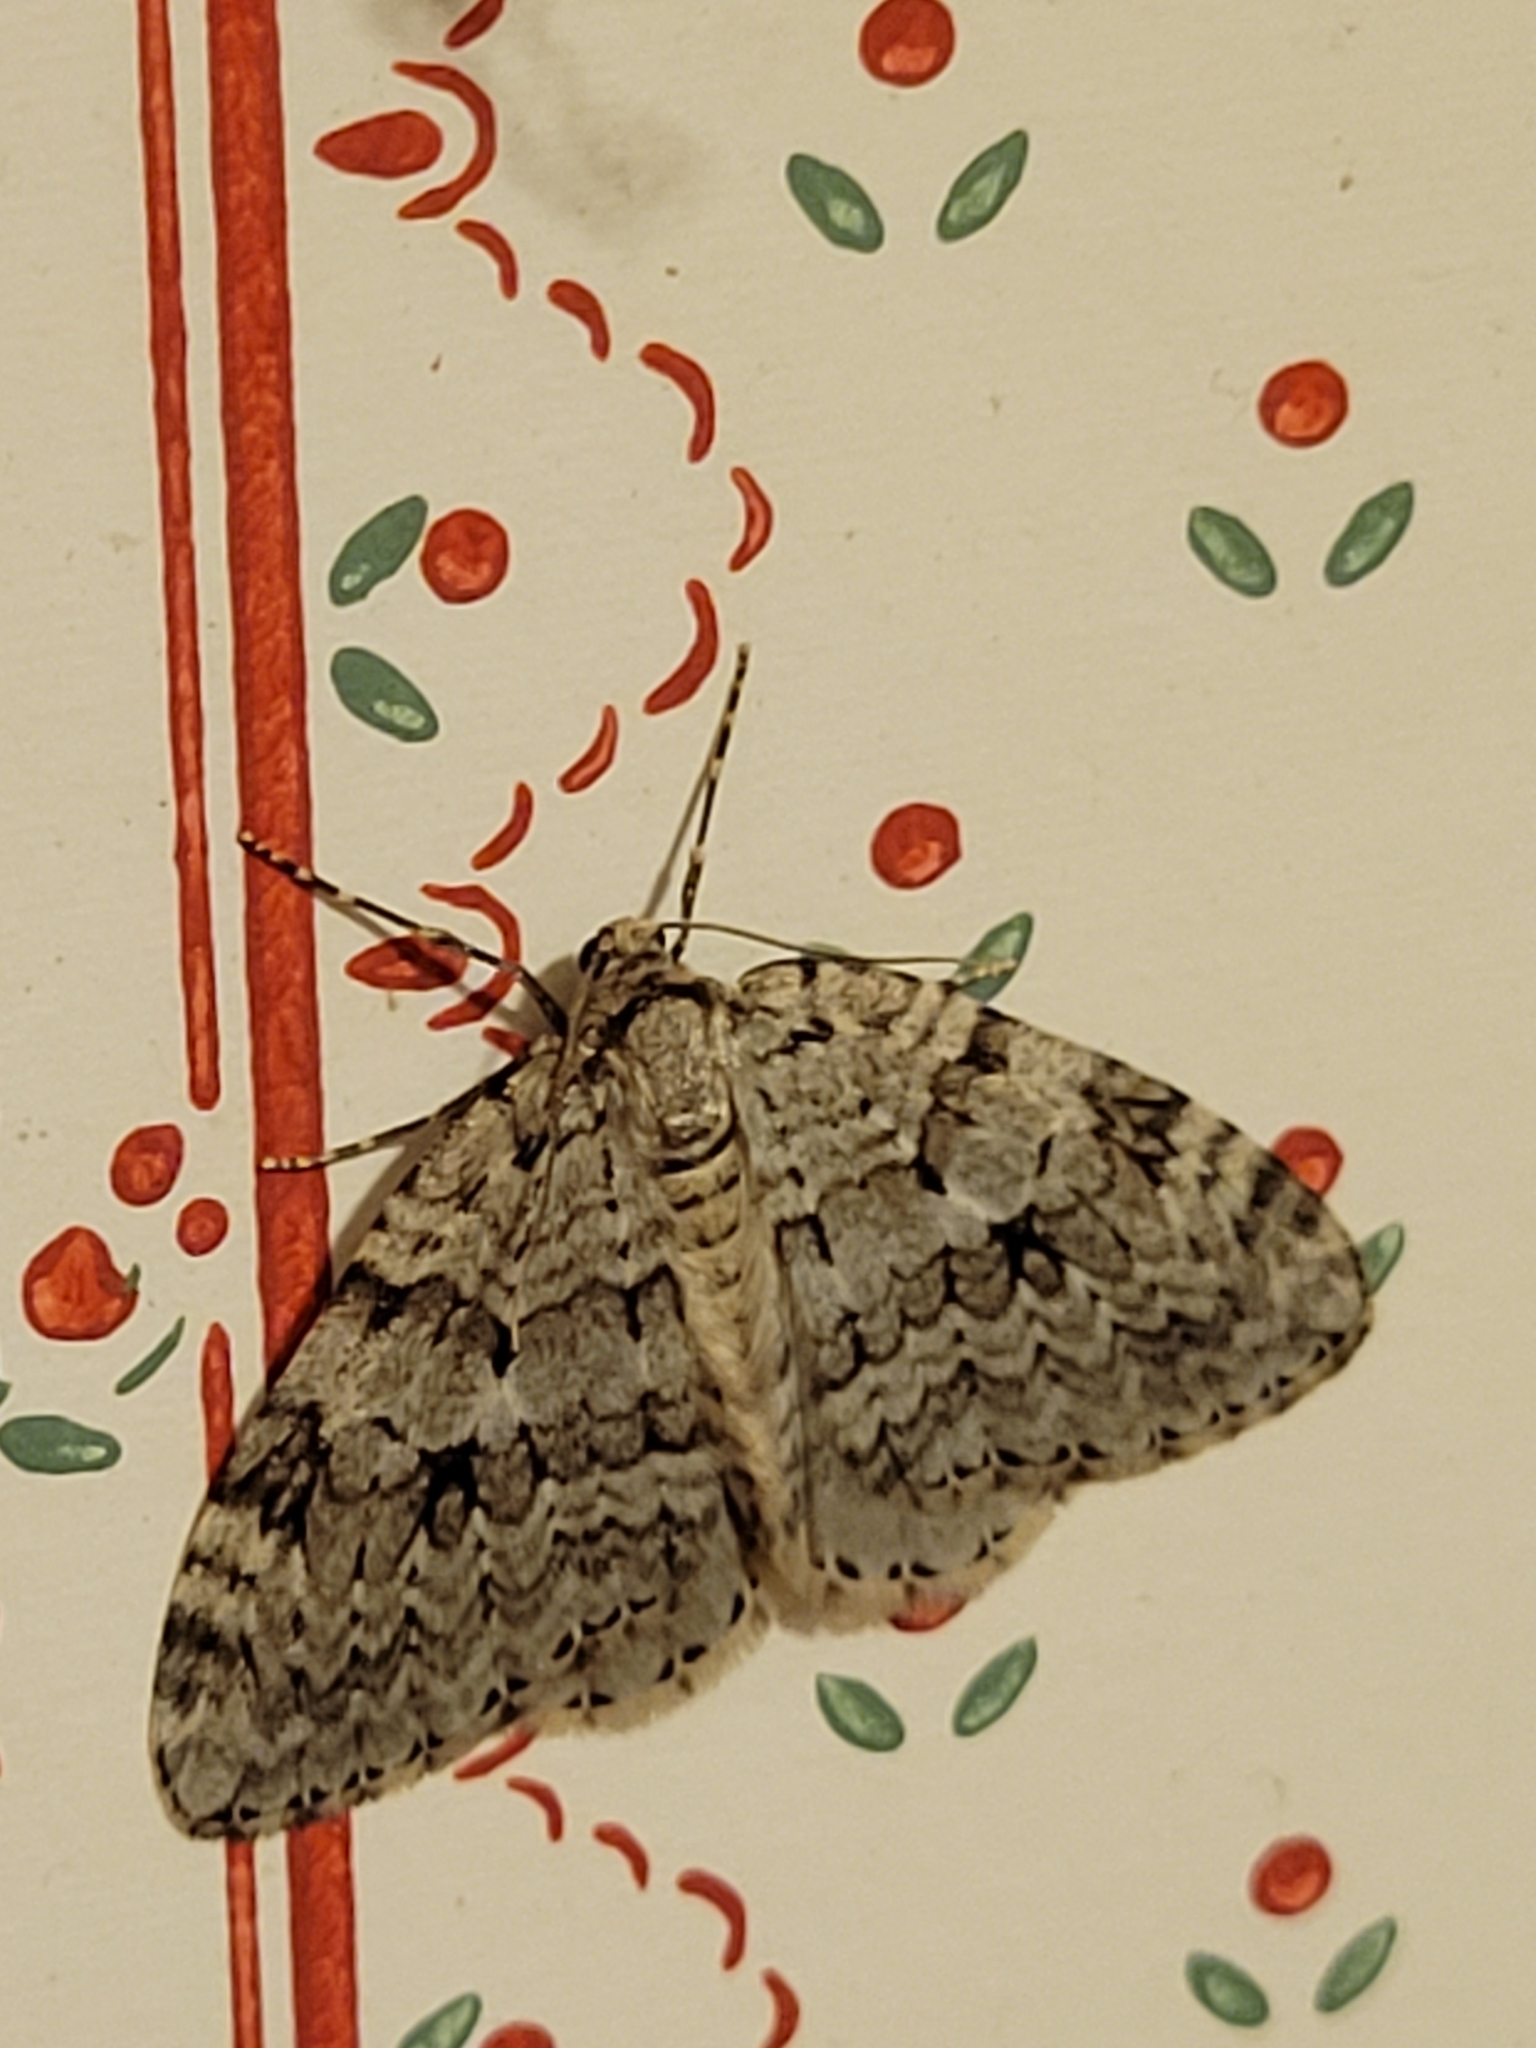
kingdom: Animalia
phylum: Arthropoda
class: Insecta
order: Lepidoptera
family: Geometridae
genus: Epirrita
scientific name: Epirrita autumnata
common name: Autumnal moth
